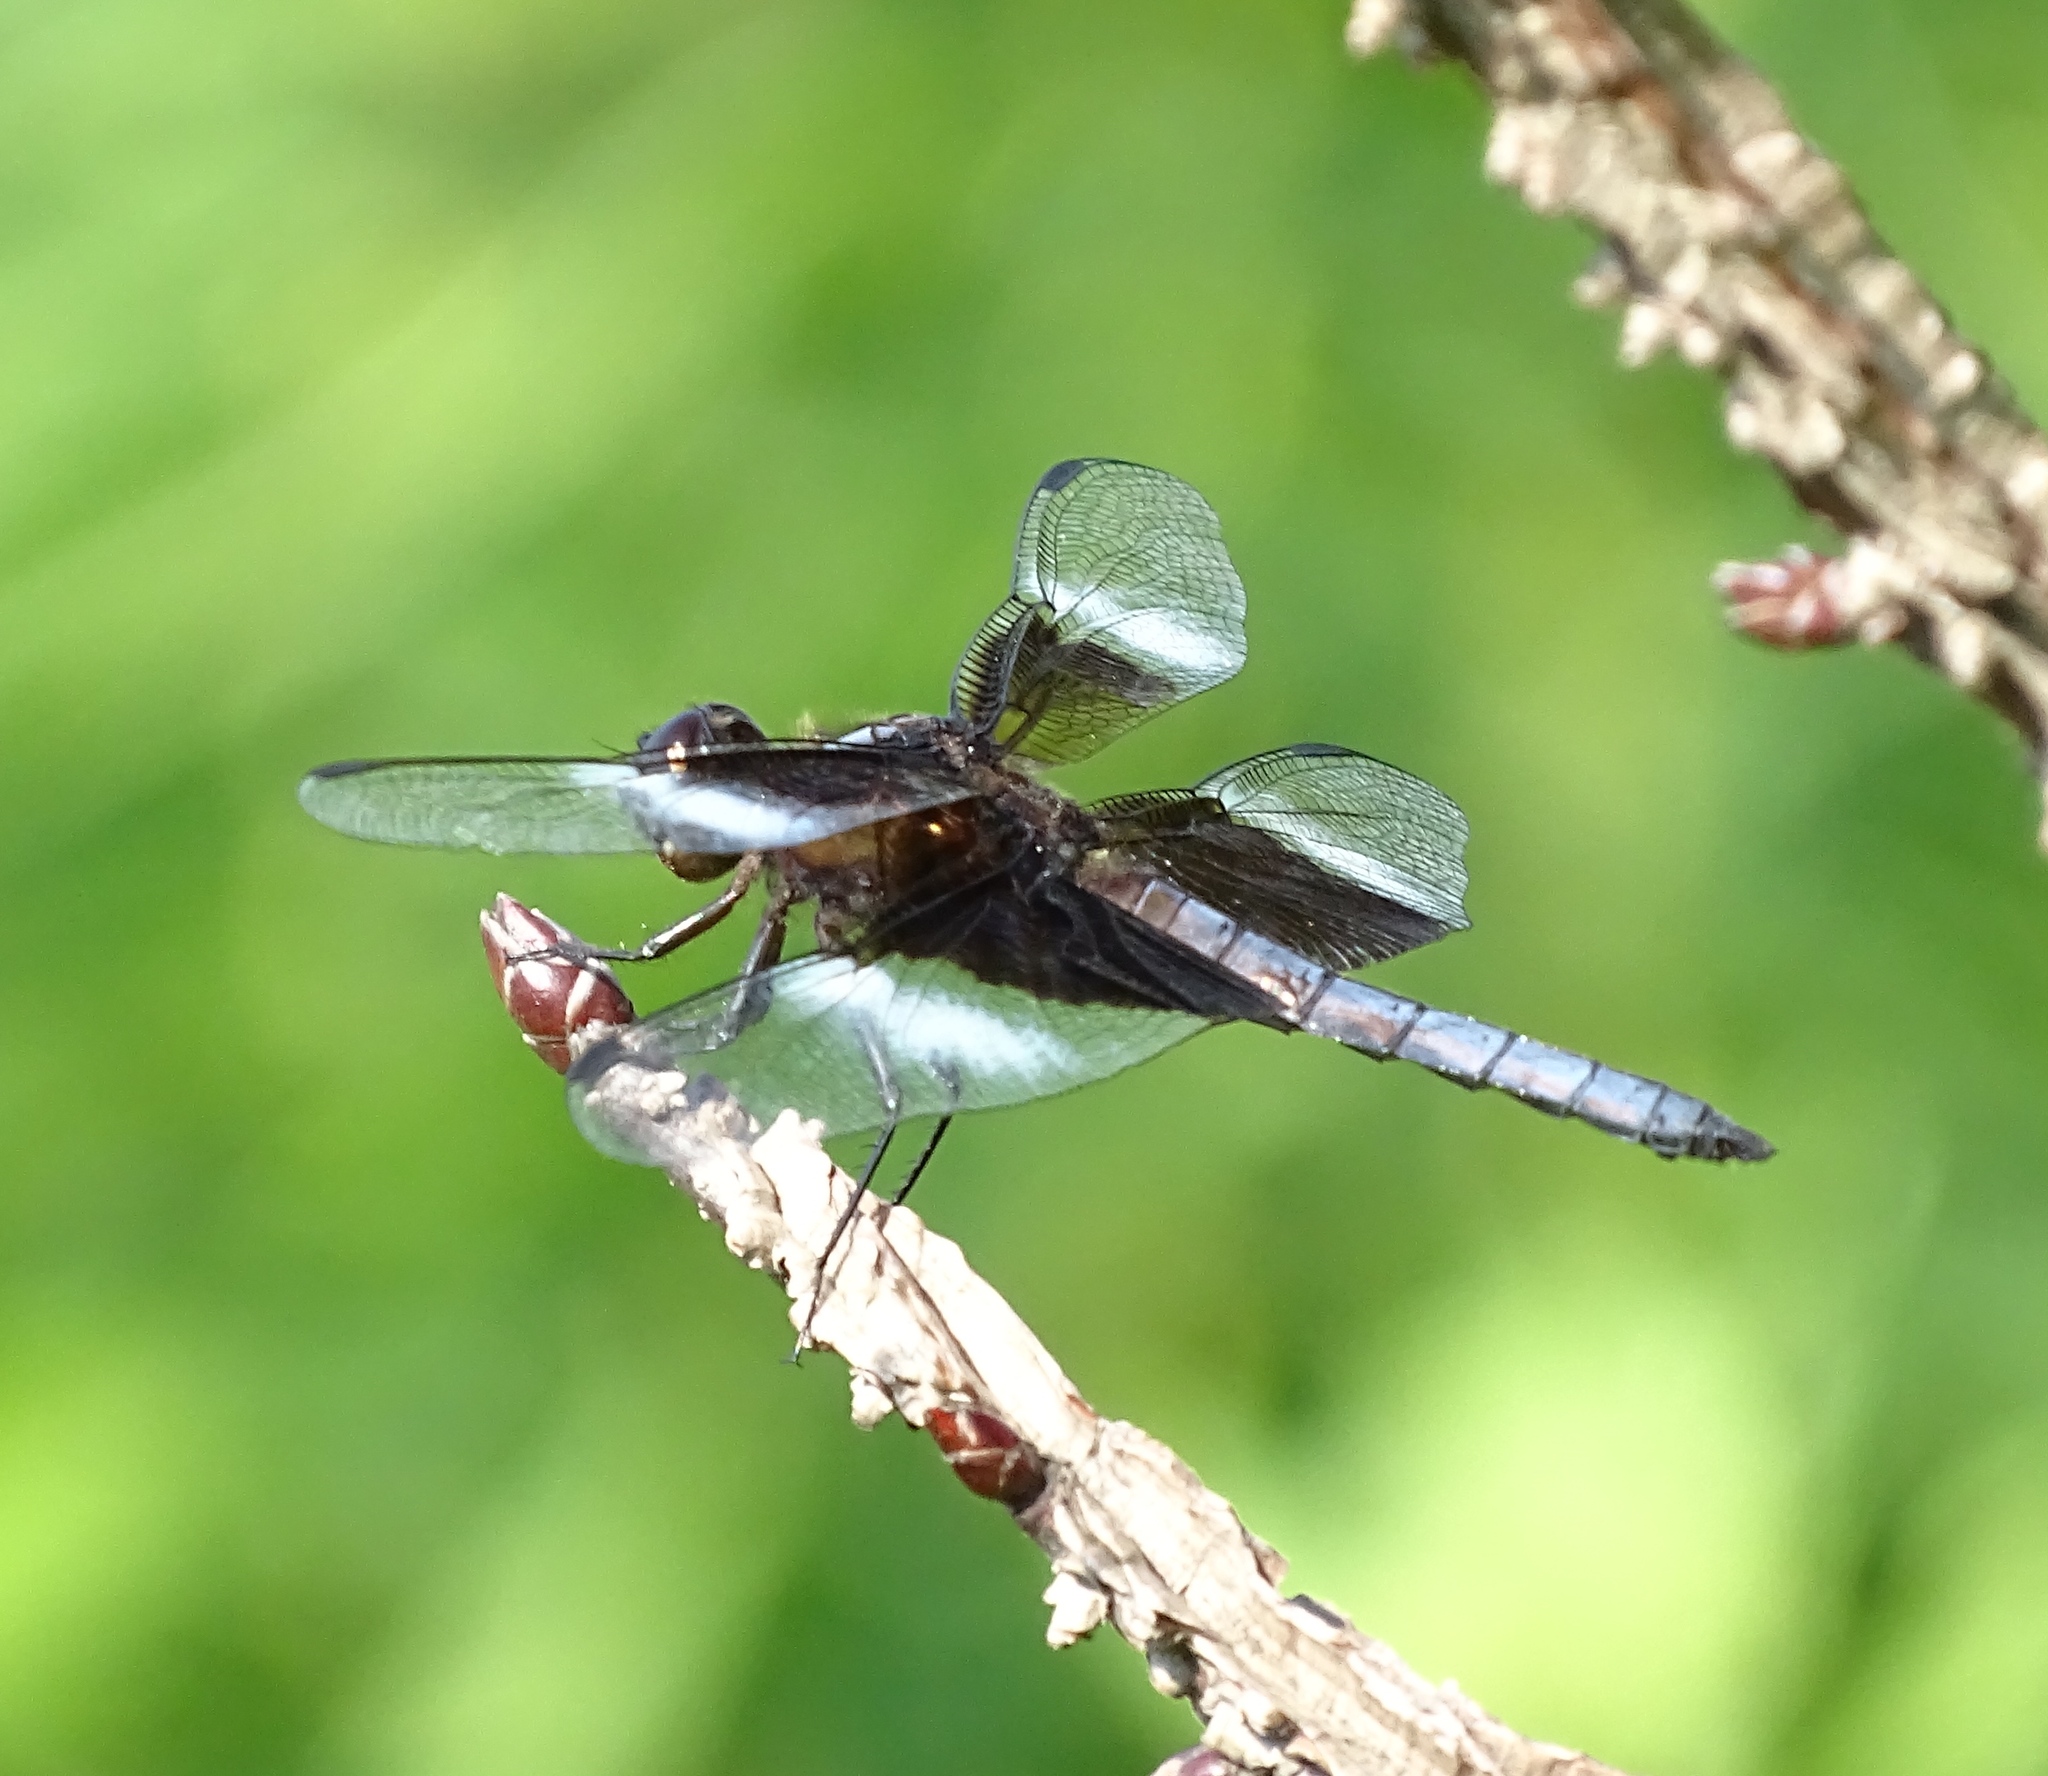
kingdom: Animalia
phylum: Arthropoda
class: Insecta
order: Odonata
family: Libellulidae
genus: Libellula
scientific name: Libellula luctuosa
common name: Widow skimmer
